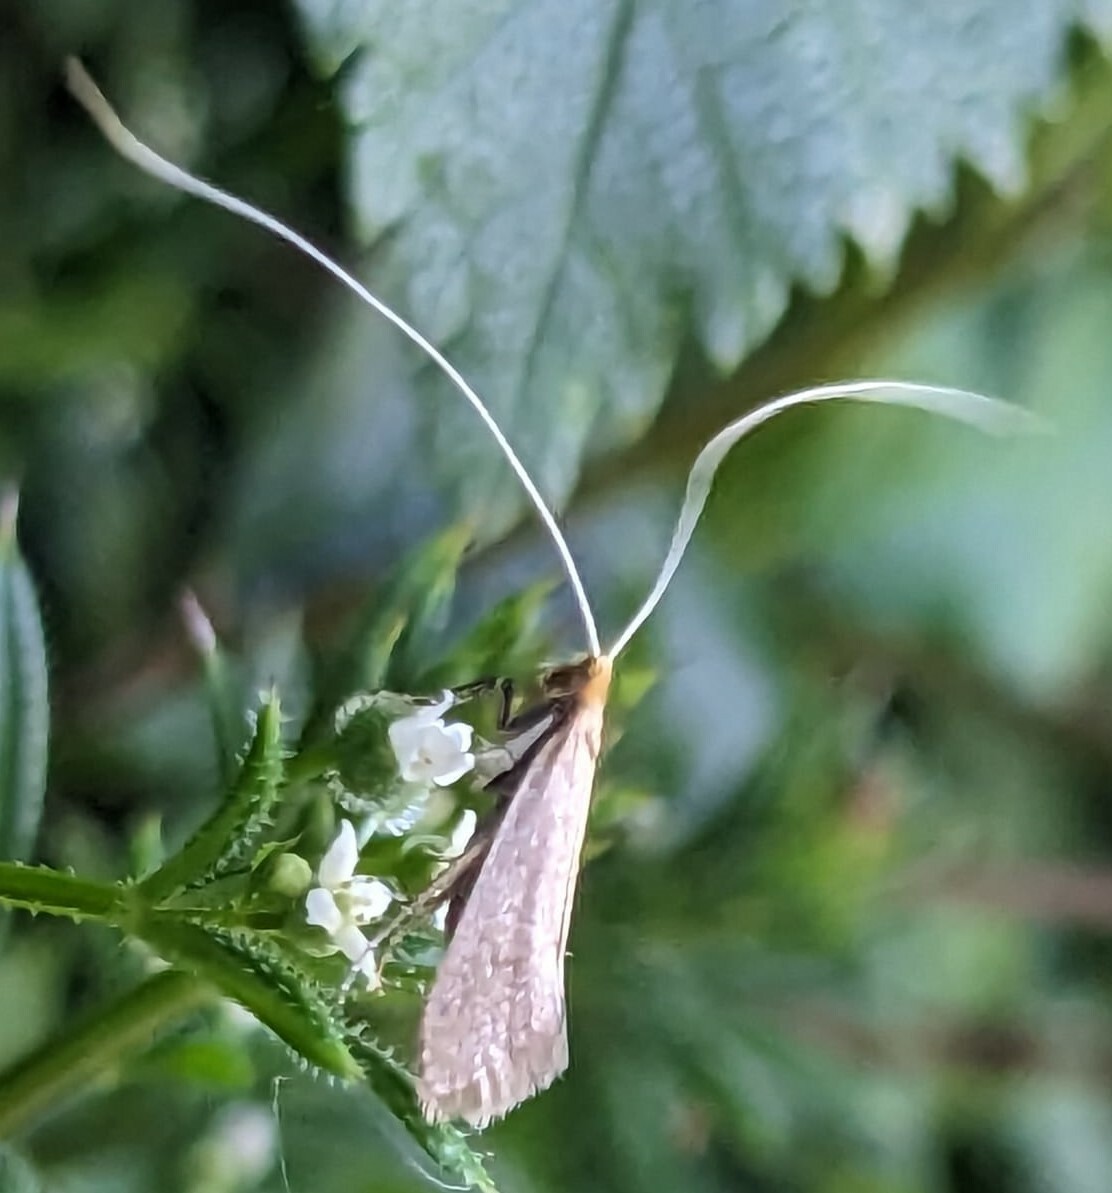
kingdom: Animalia
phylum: Arthropoda
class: Insecta
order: Lepidoptera
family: Adelidae
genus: Nematopogon
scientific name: Nematopogon swammerdamella
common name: Large long-horn
